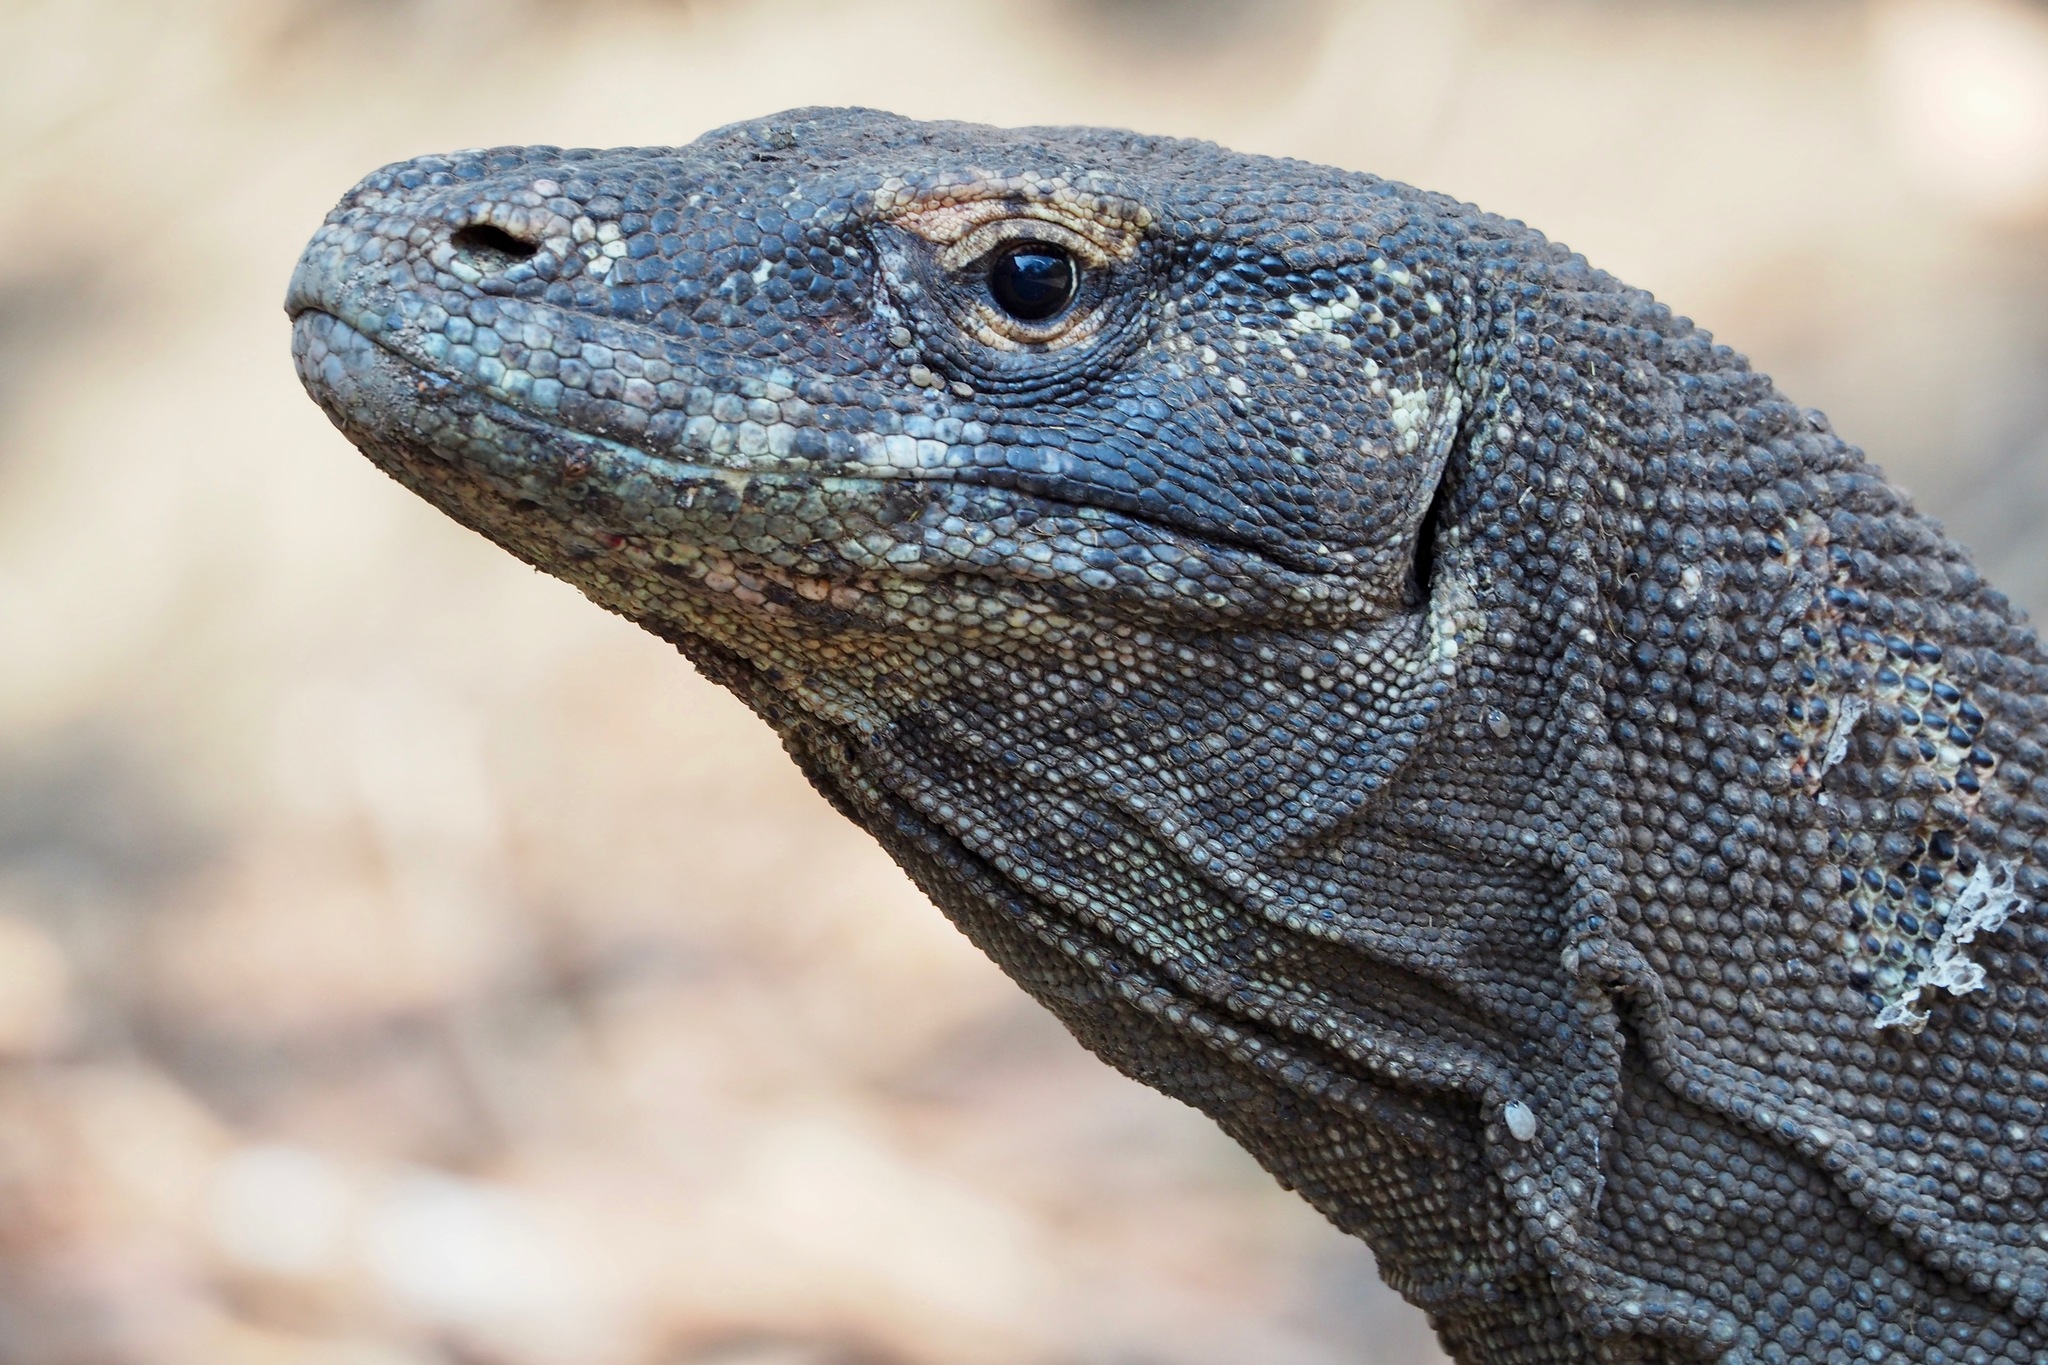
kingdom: Animalia
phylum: Chordata
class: Squamata
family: Varanidae
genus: Varanus
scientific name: Varanus komodoensis
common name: Komodo dragon
